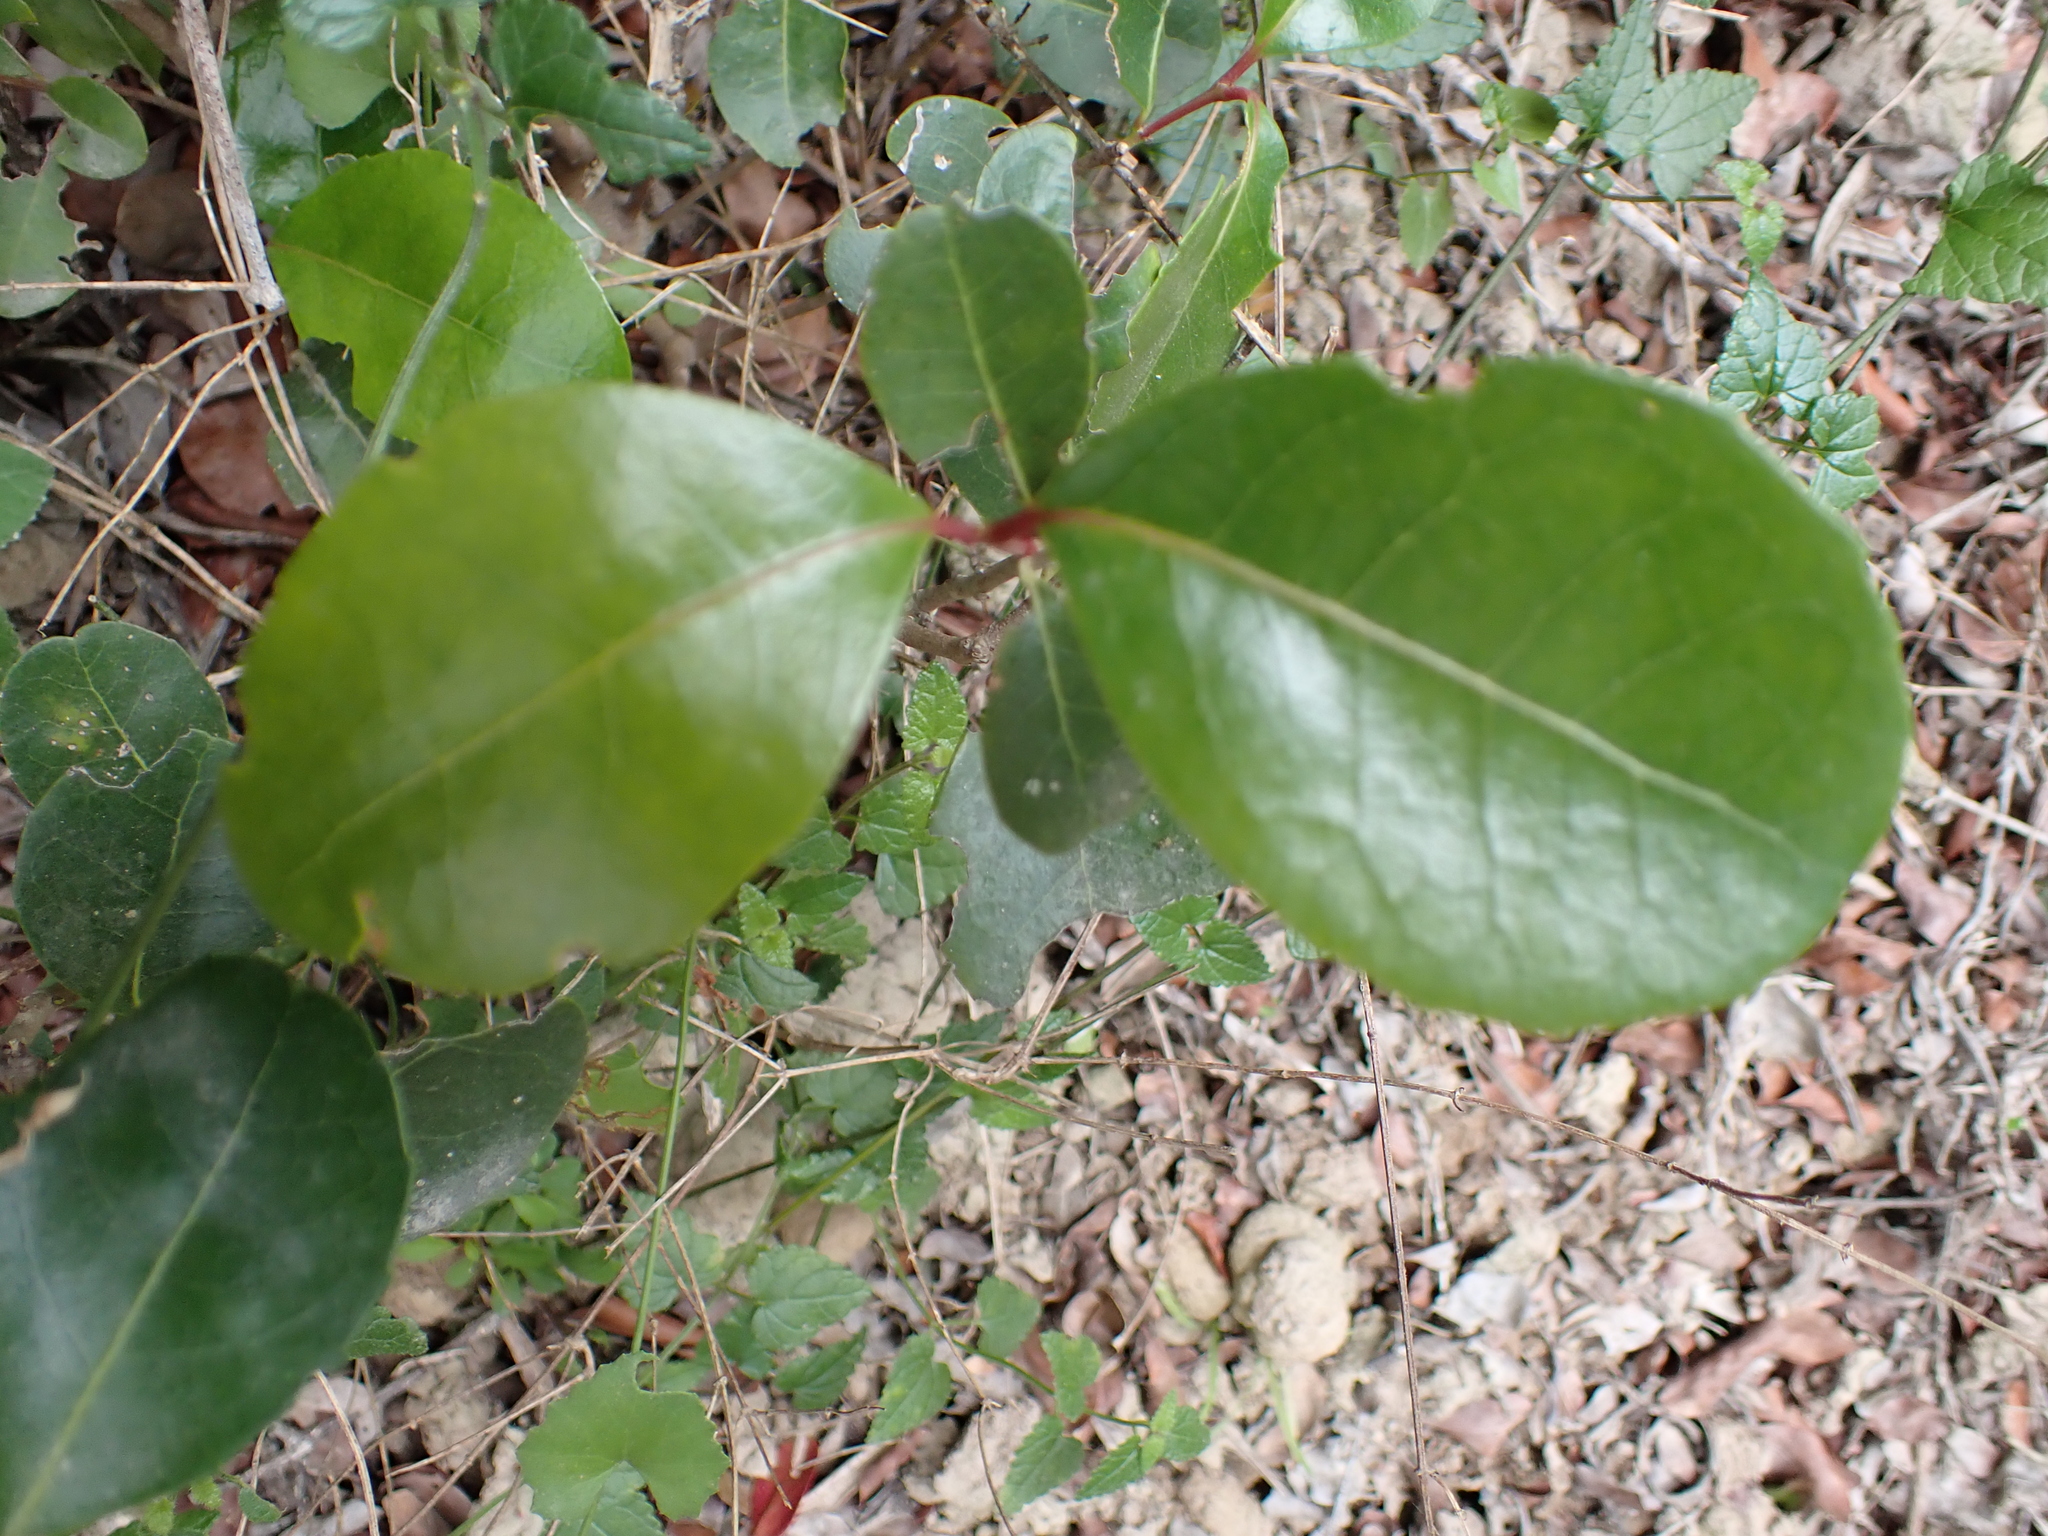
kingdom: Plantae
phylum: Tracheophyta
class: Magnoliopsida
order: Metteniusales
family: Metteniusaceae
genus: Apodytes
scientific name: Apodytes dimidiata
